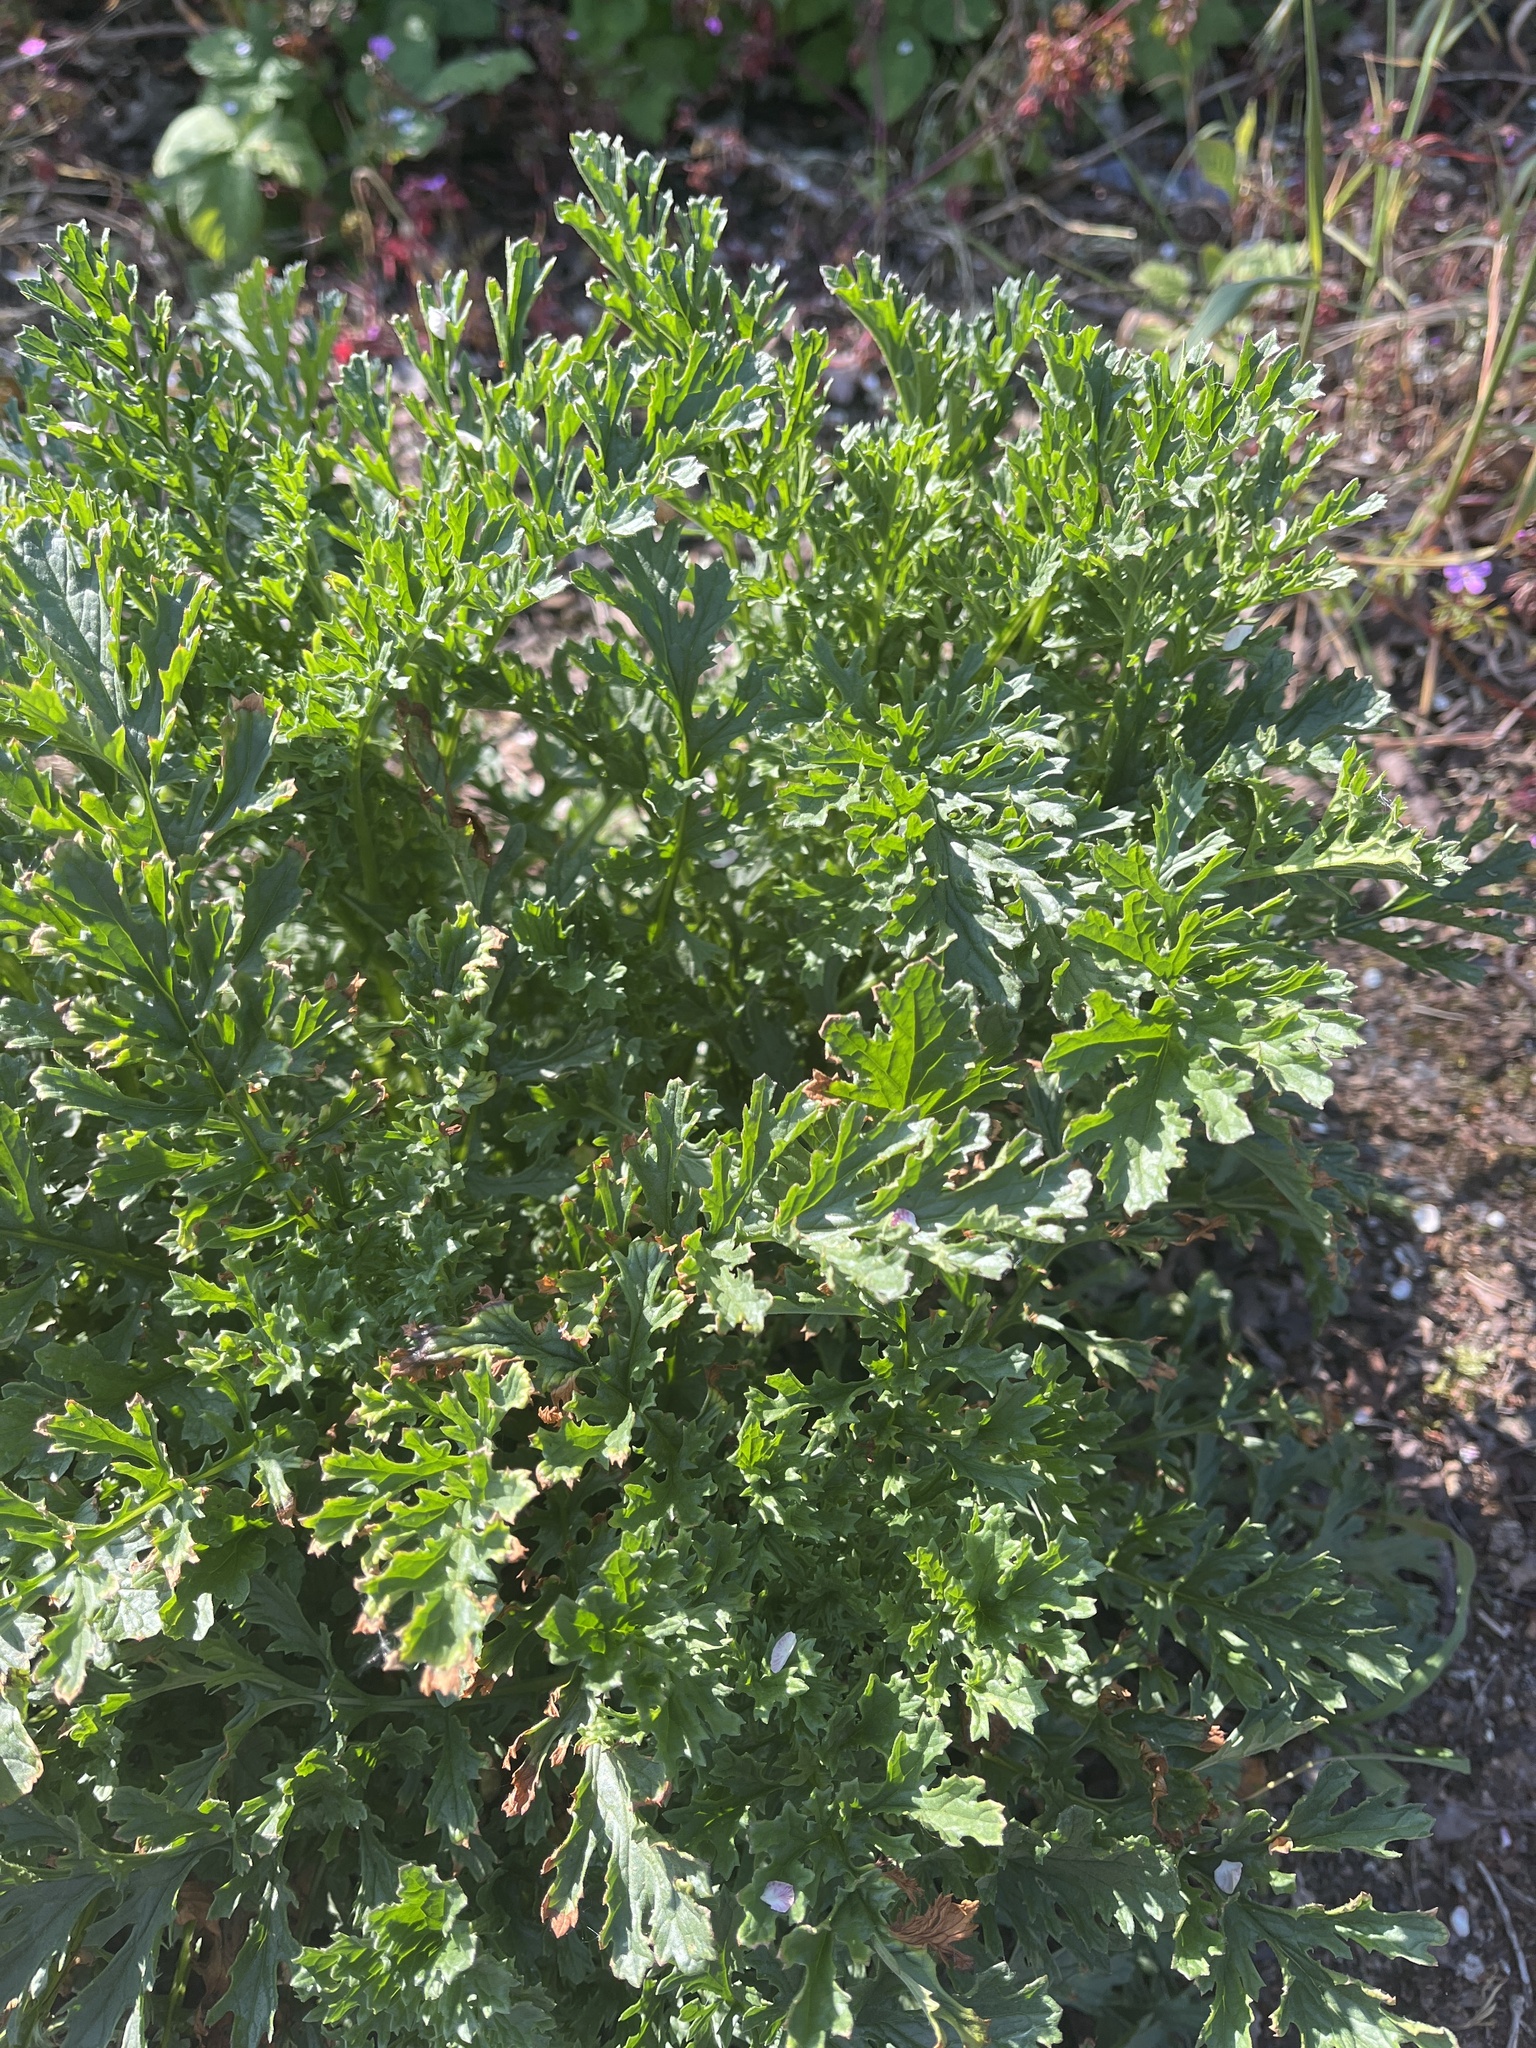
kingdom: Plantae
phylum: Tracheophyta
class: Magnoliopsida
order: Asterales
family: Asteraceae
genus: Jacobaea
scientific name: Jacobaea vulgaris
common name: Stinking willie
